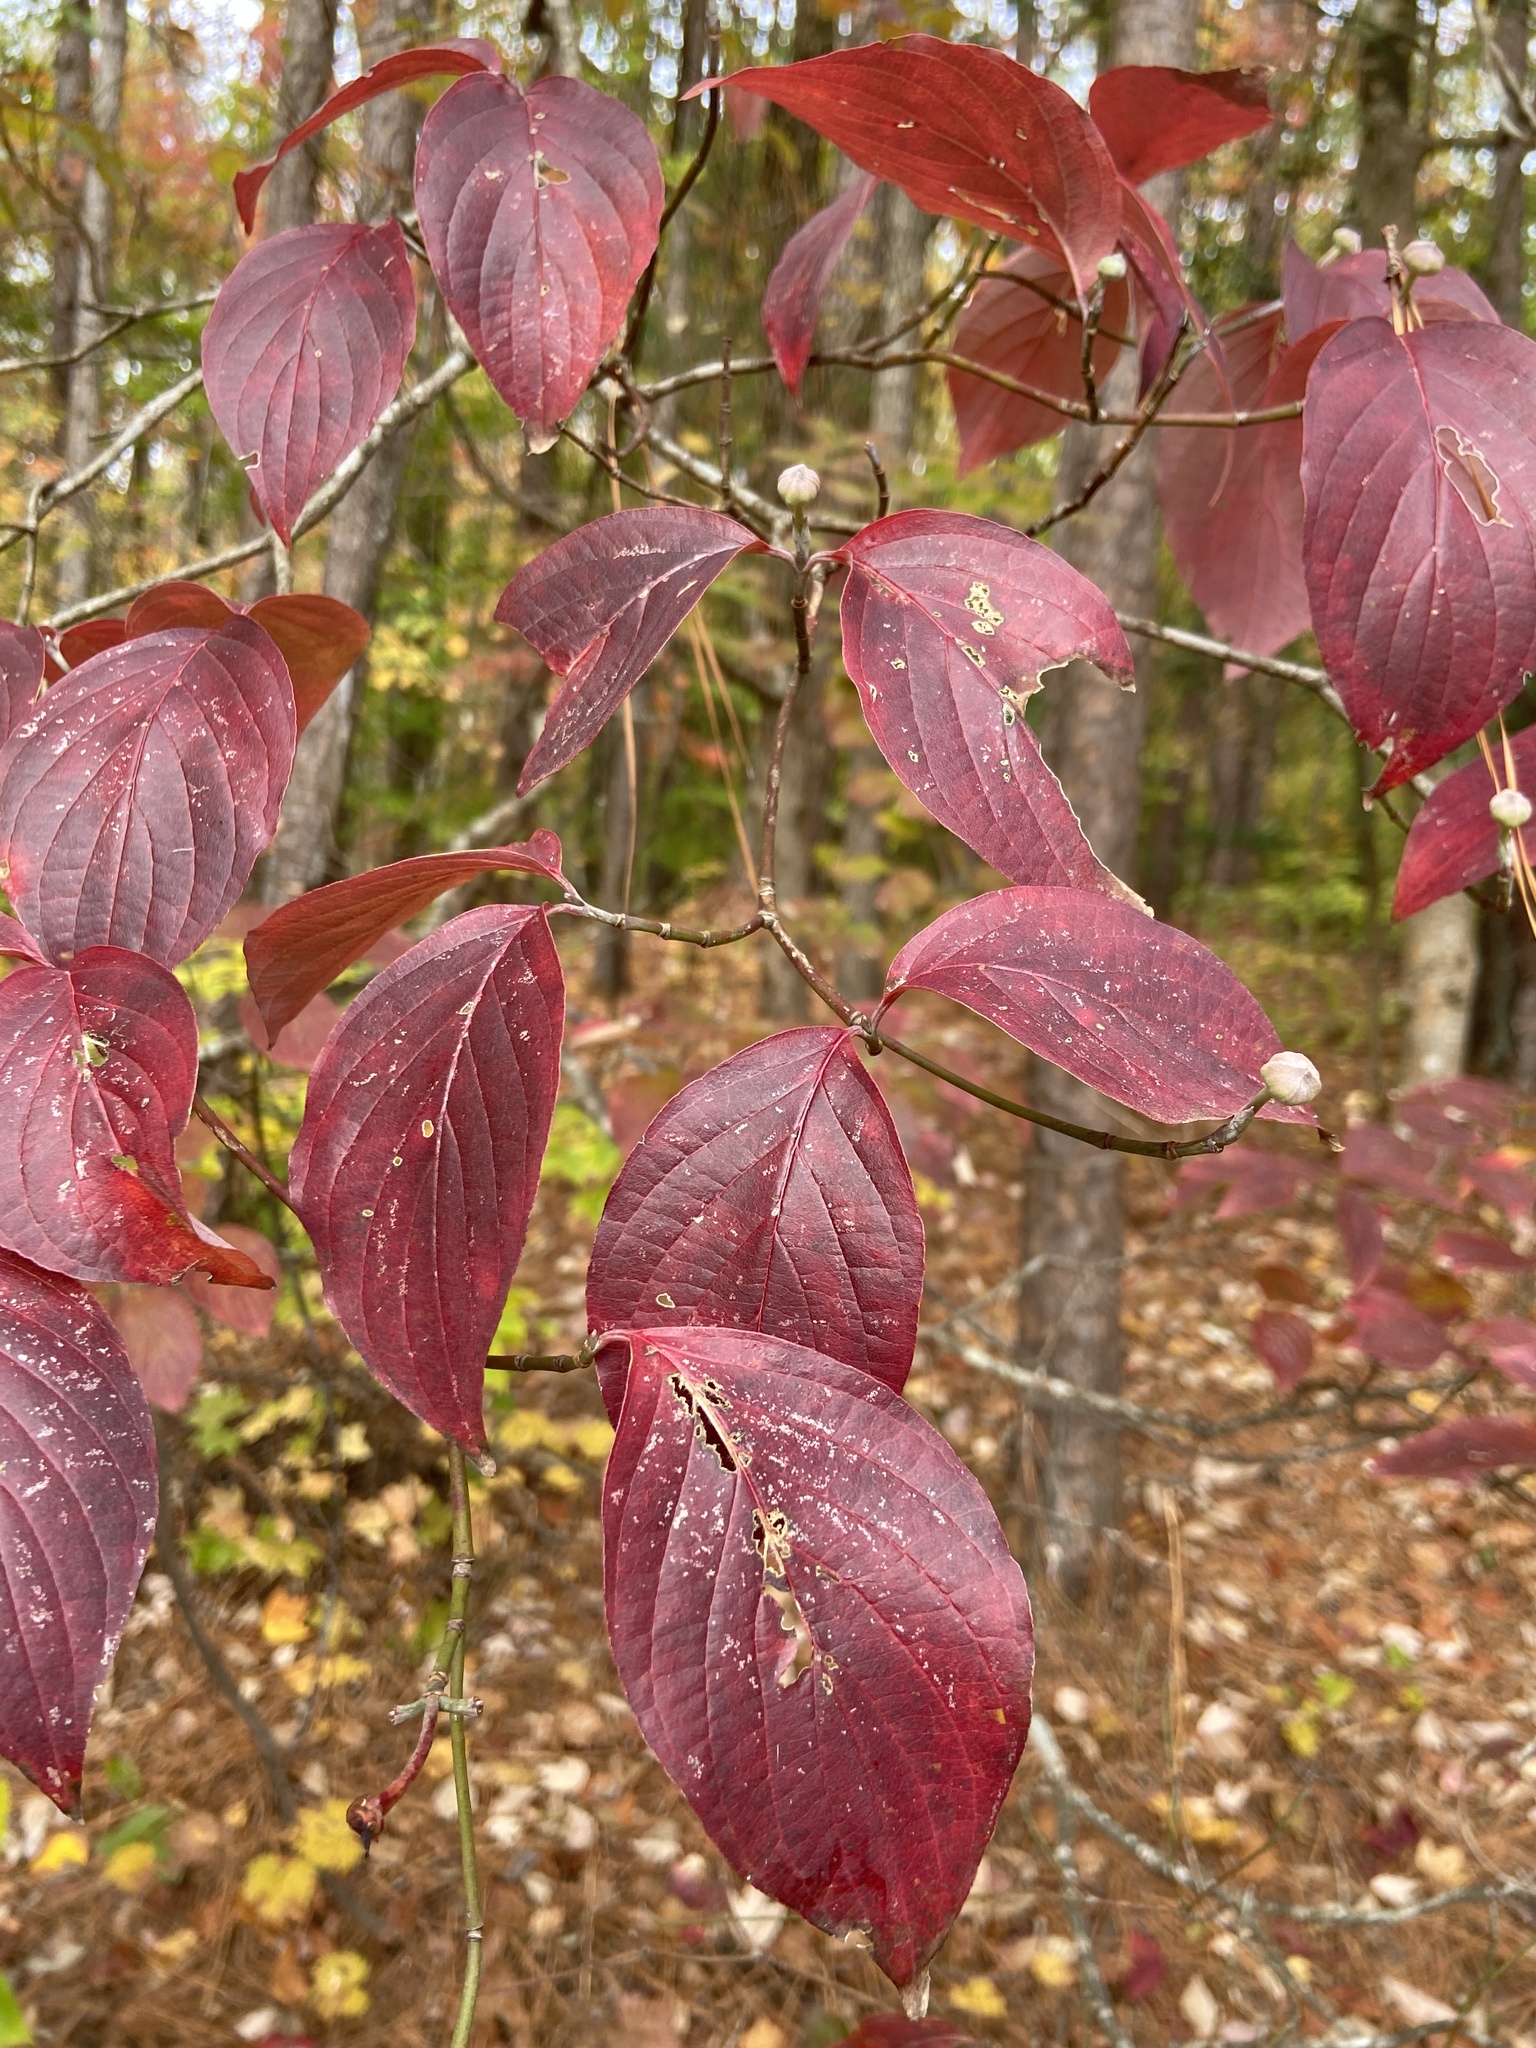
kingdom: Plantae
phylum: Tracheophyta
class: Magnoliopsida
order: Cornales
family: Cornaceae
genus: Cornus
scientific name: Cornus florida
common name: Flowering dogwood
